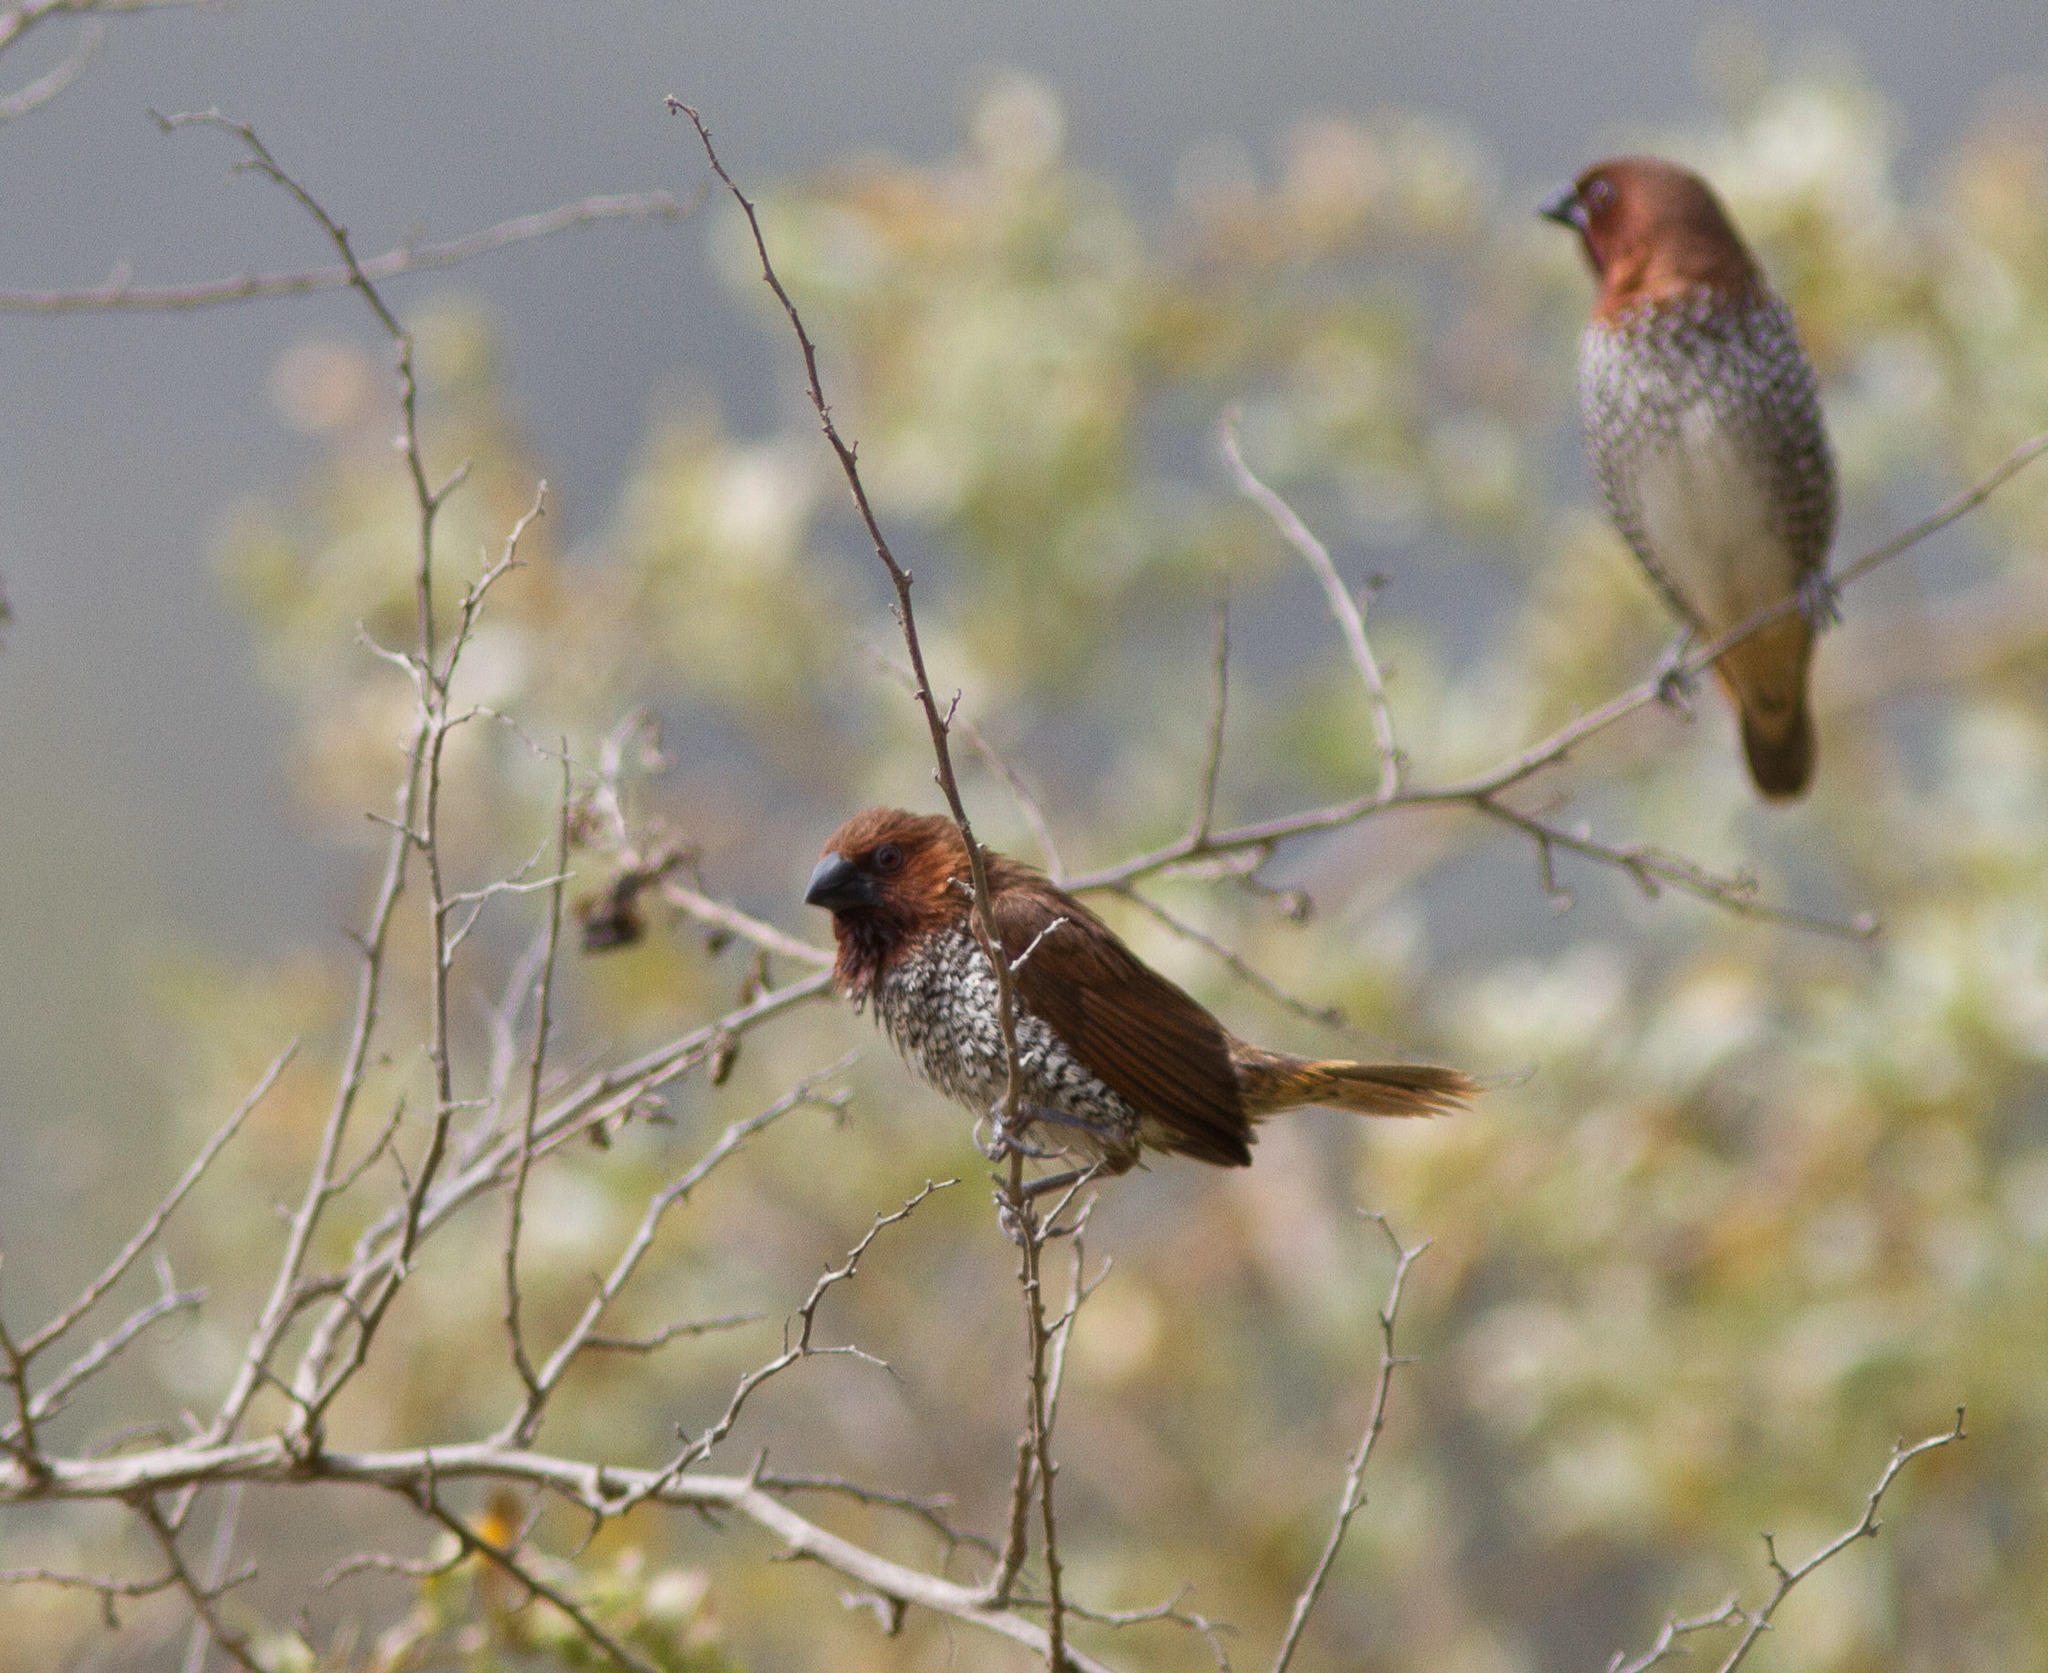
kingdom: Animalia
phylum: Chordata
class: Aves
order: Passeriformes
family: Estrildidae
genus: Lonchura
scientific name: Lonchura punctulata
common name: Scaly-breasted munia
